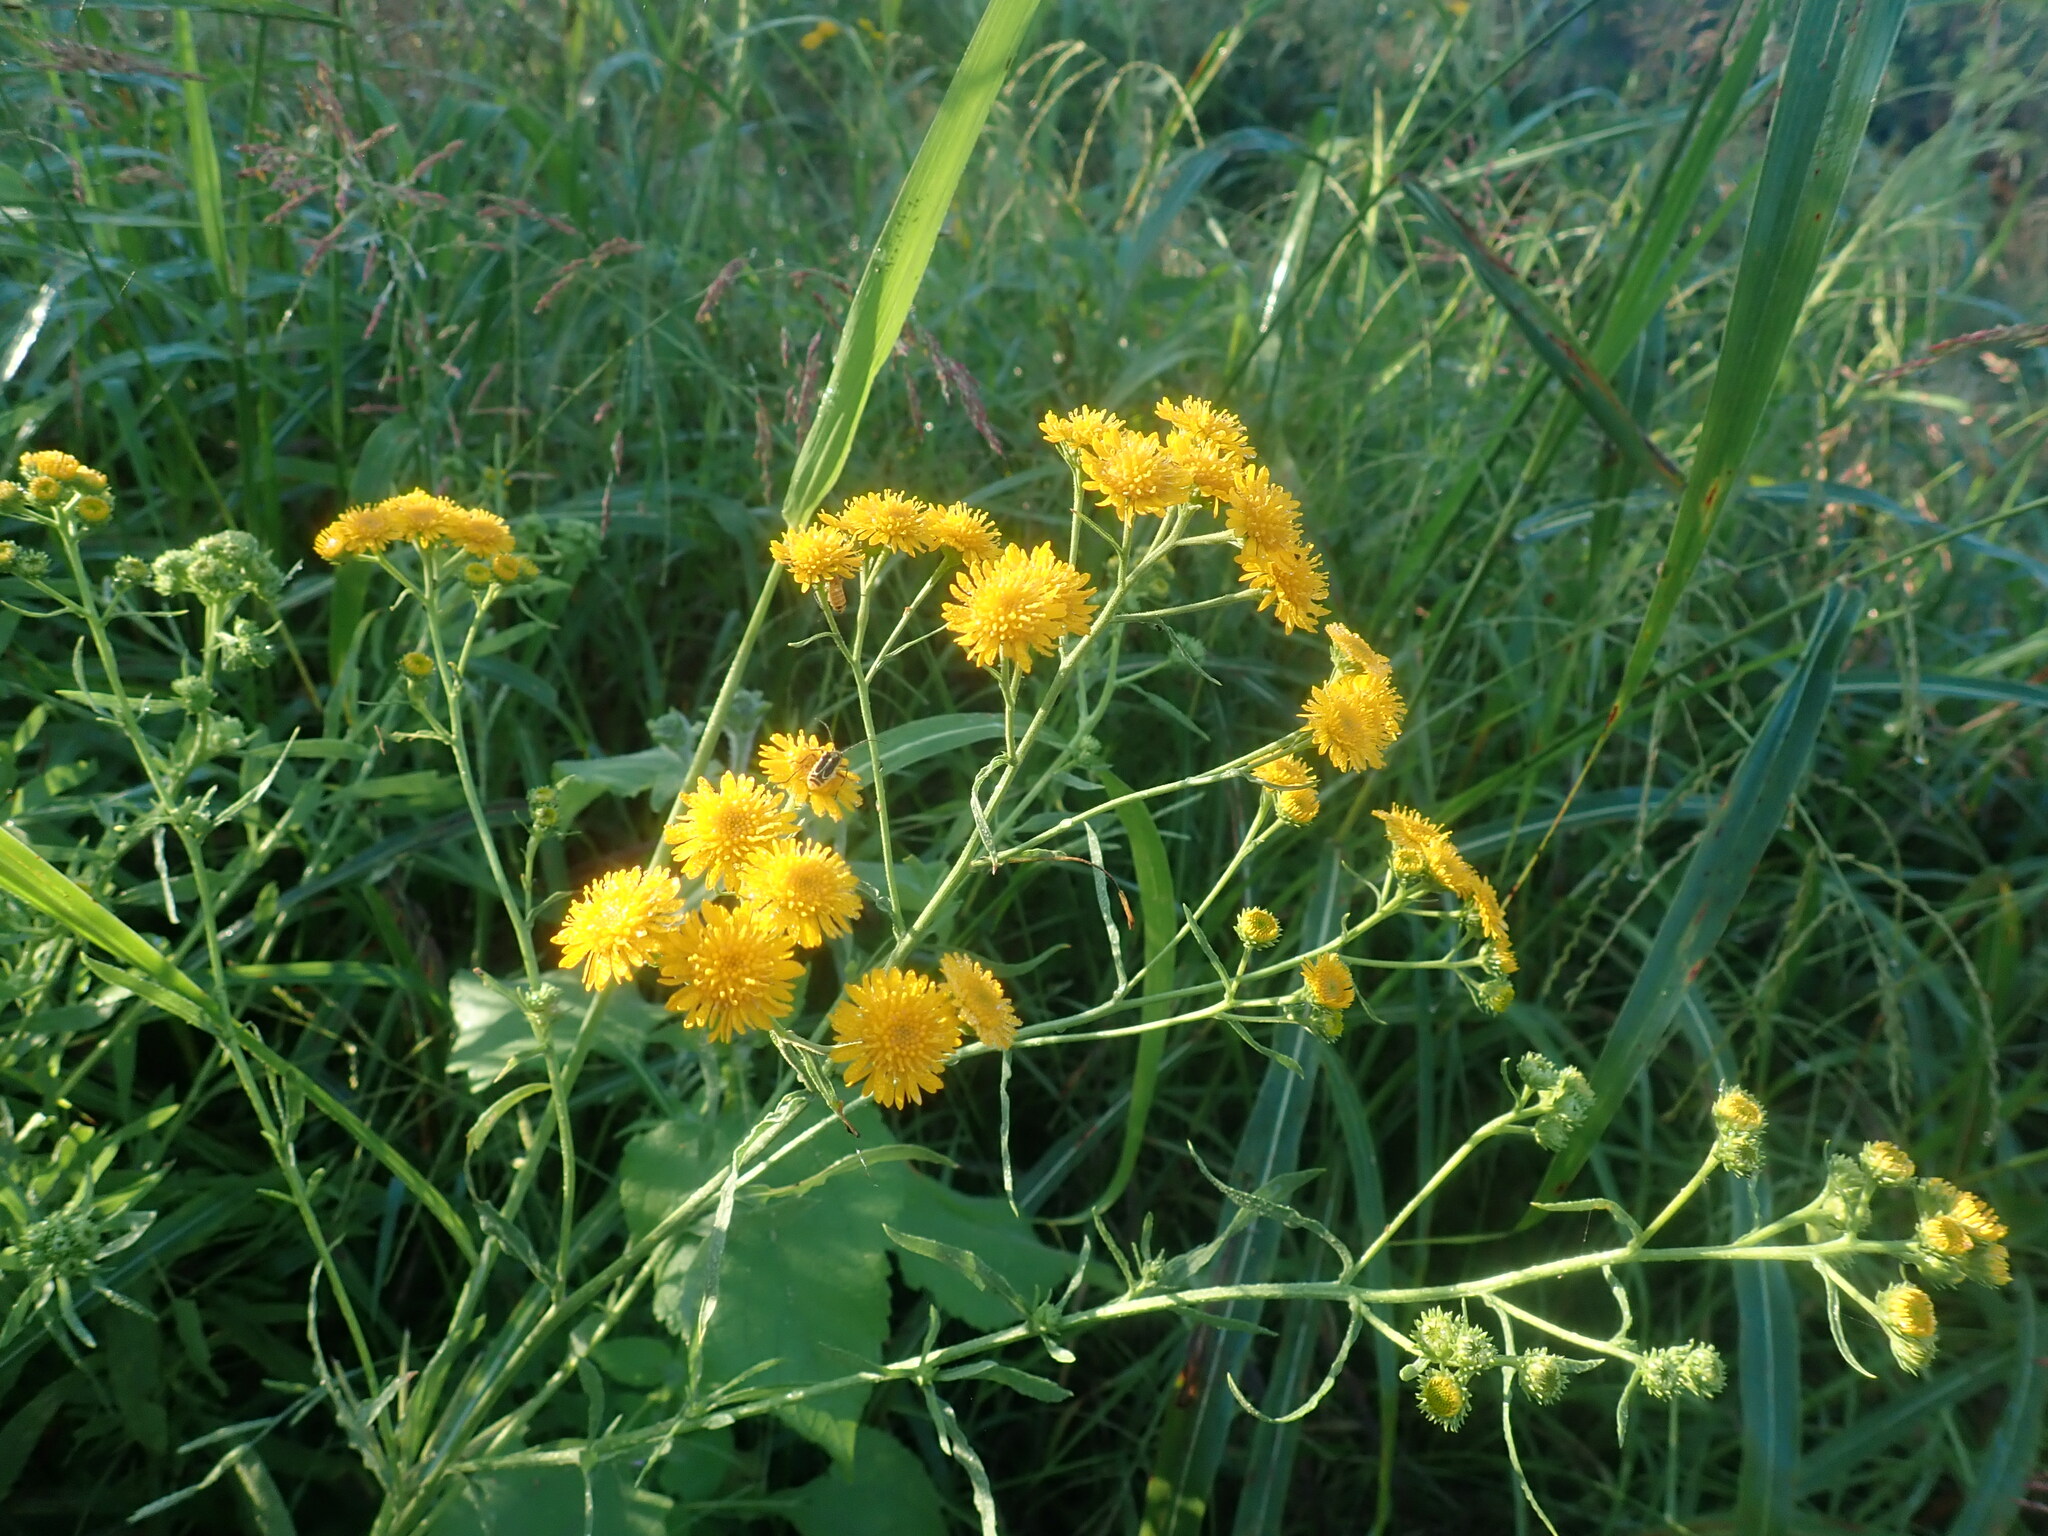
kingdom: Plantae
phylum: Tracheophyta
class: Magnoliopsida
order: Asterales
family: Asteraceae
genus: Xanthocephalum
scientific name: Xanthocephalum gymnospermoides
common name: San pedro matchweed
